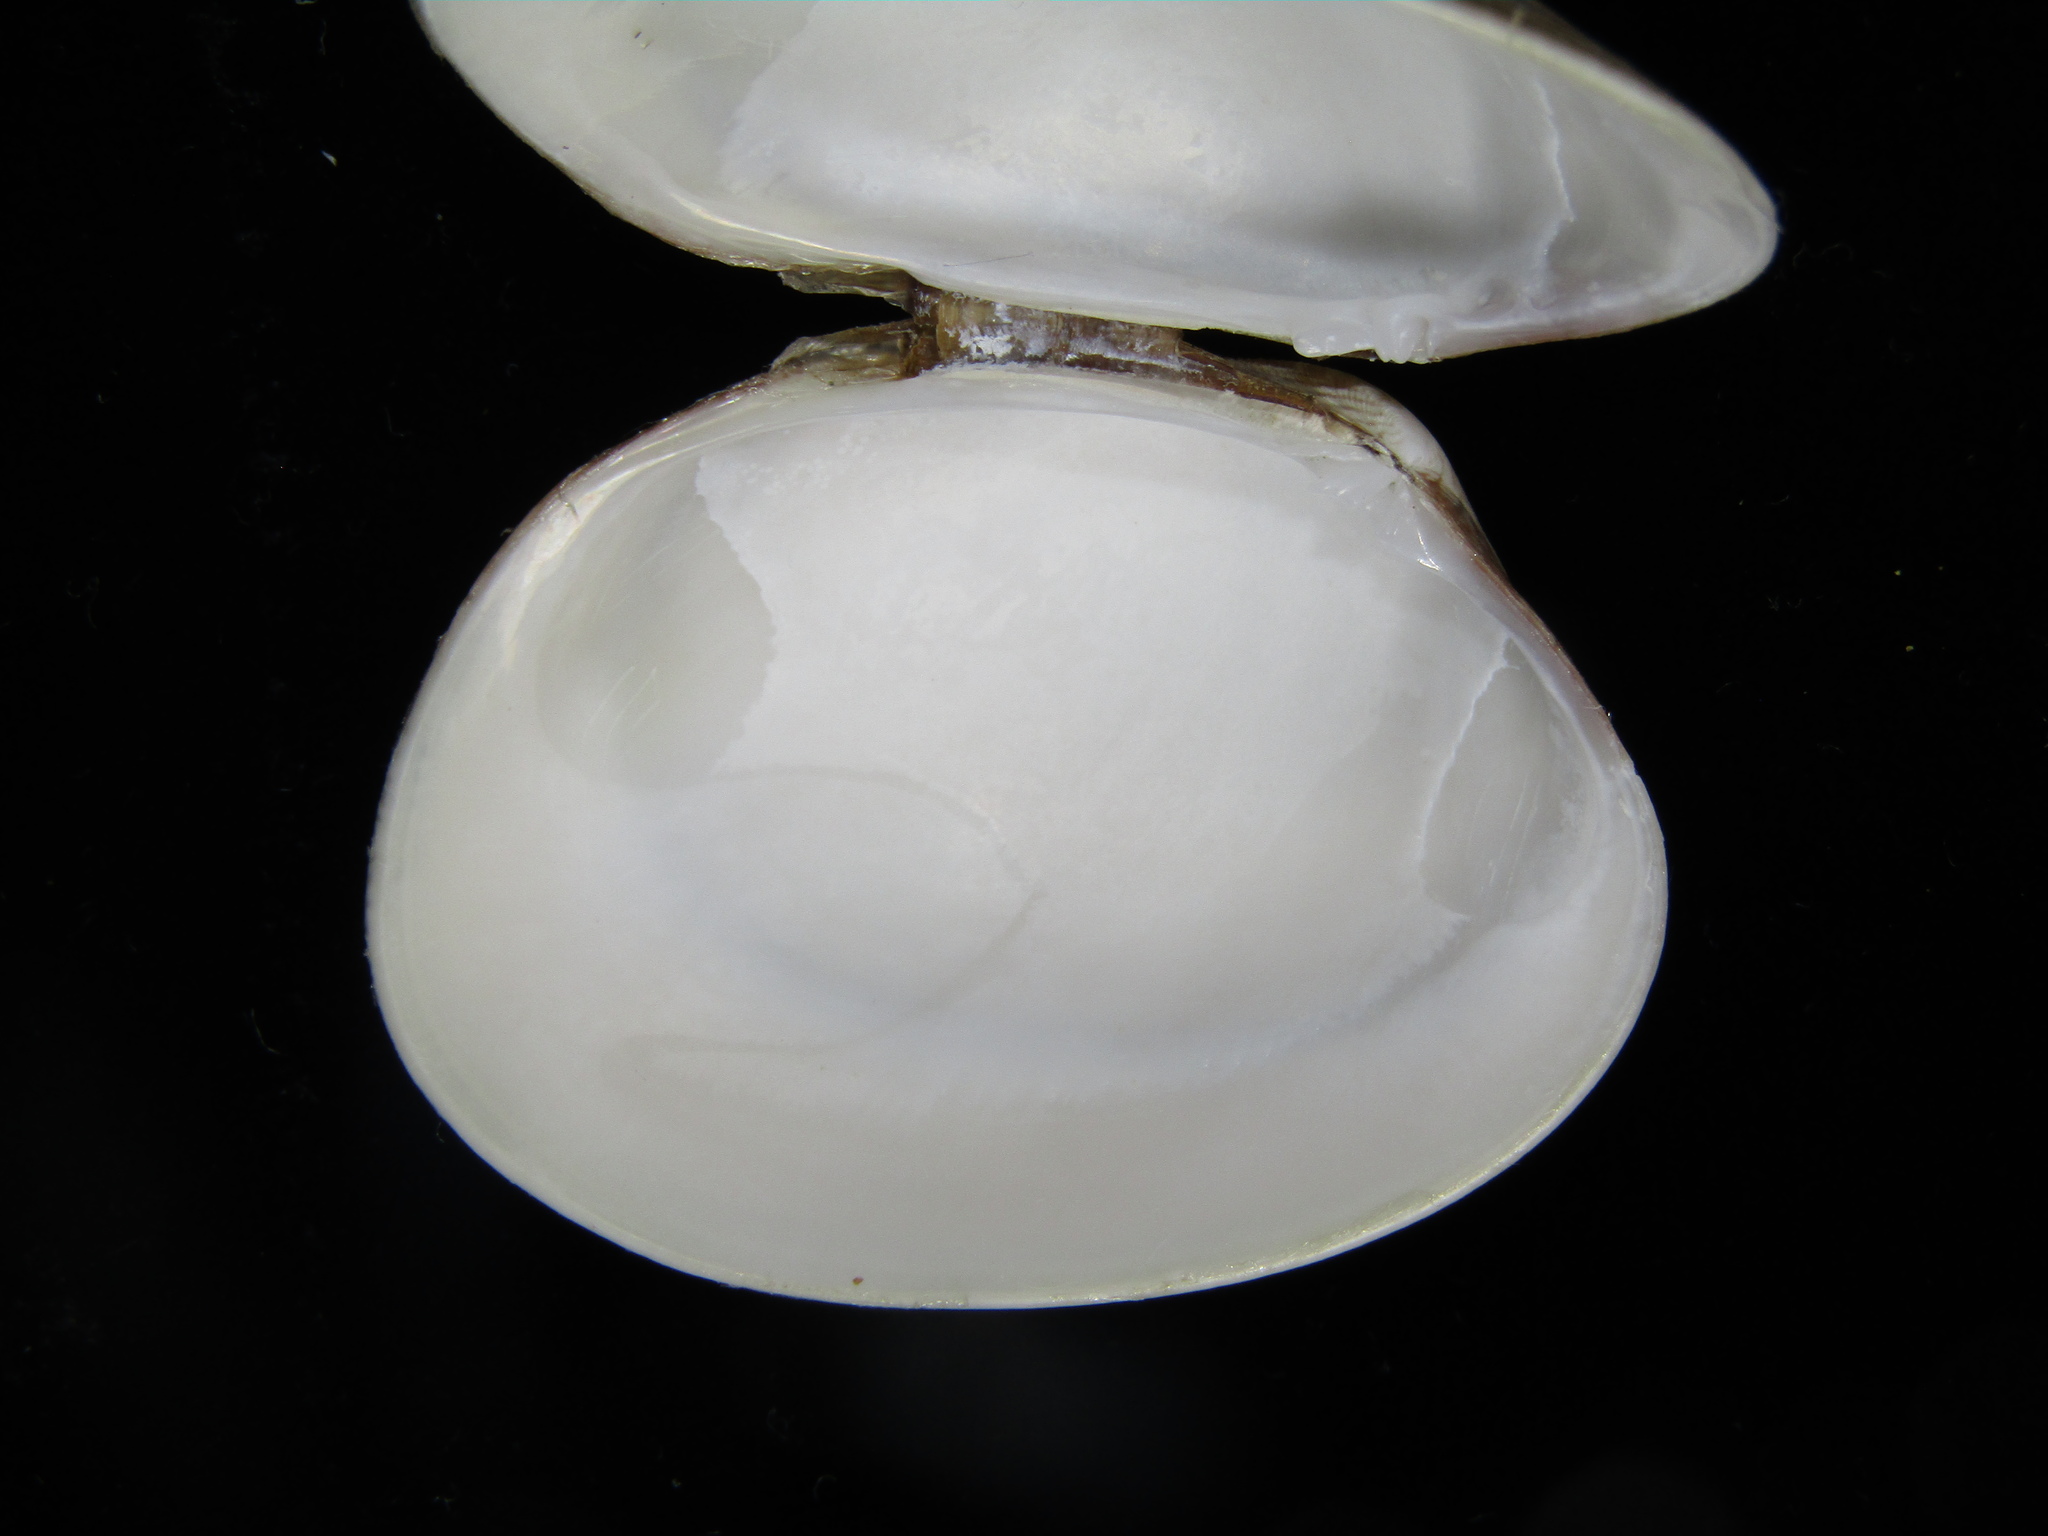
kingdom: Animalia
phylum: Mollusca
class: Bivalvia
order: Venerida
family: Veneridae
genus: Venerupis
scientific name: Venerupis largillierti
